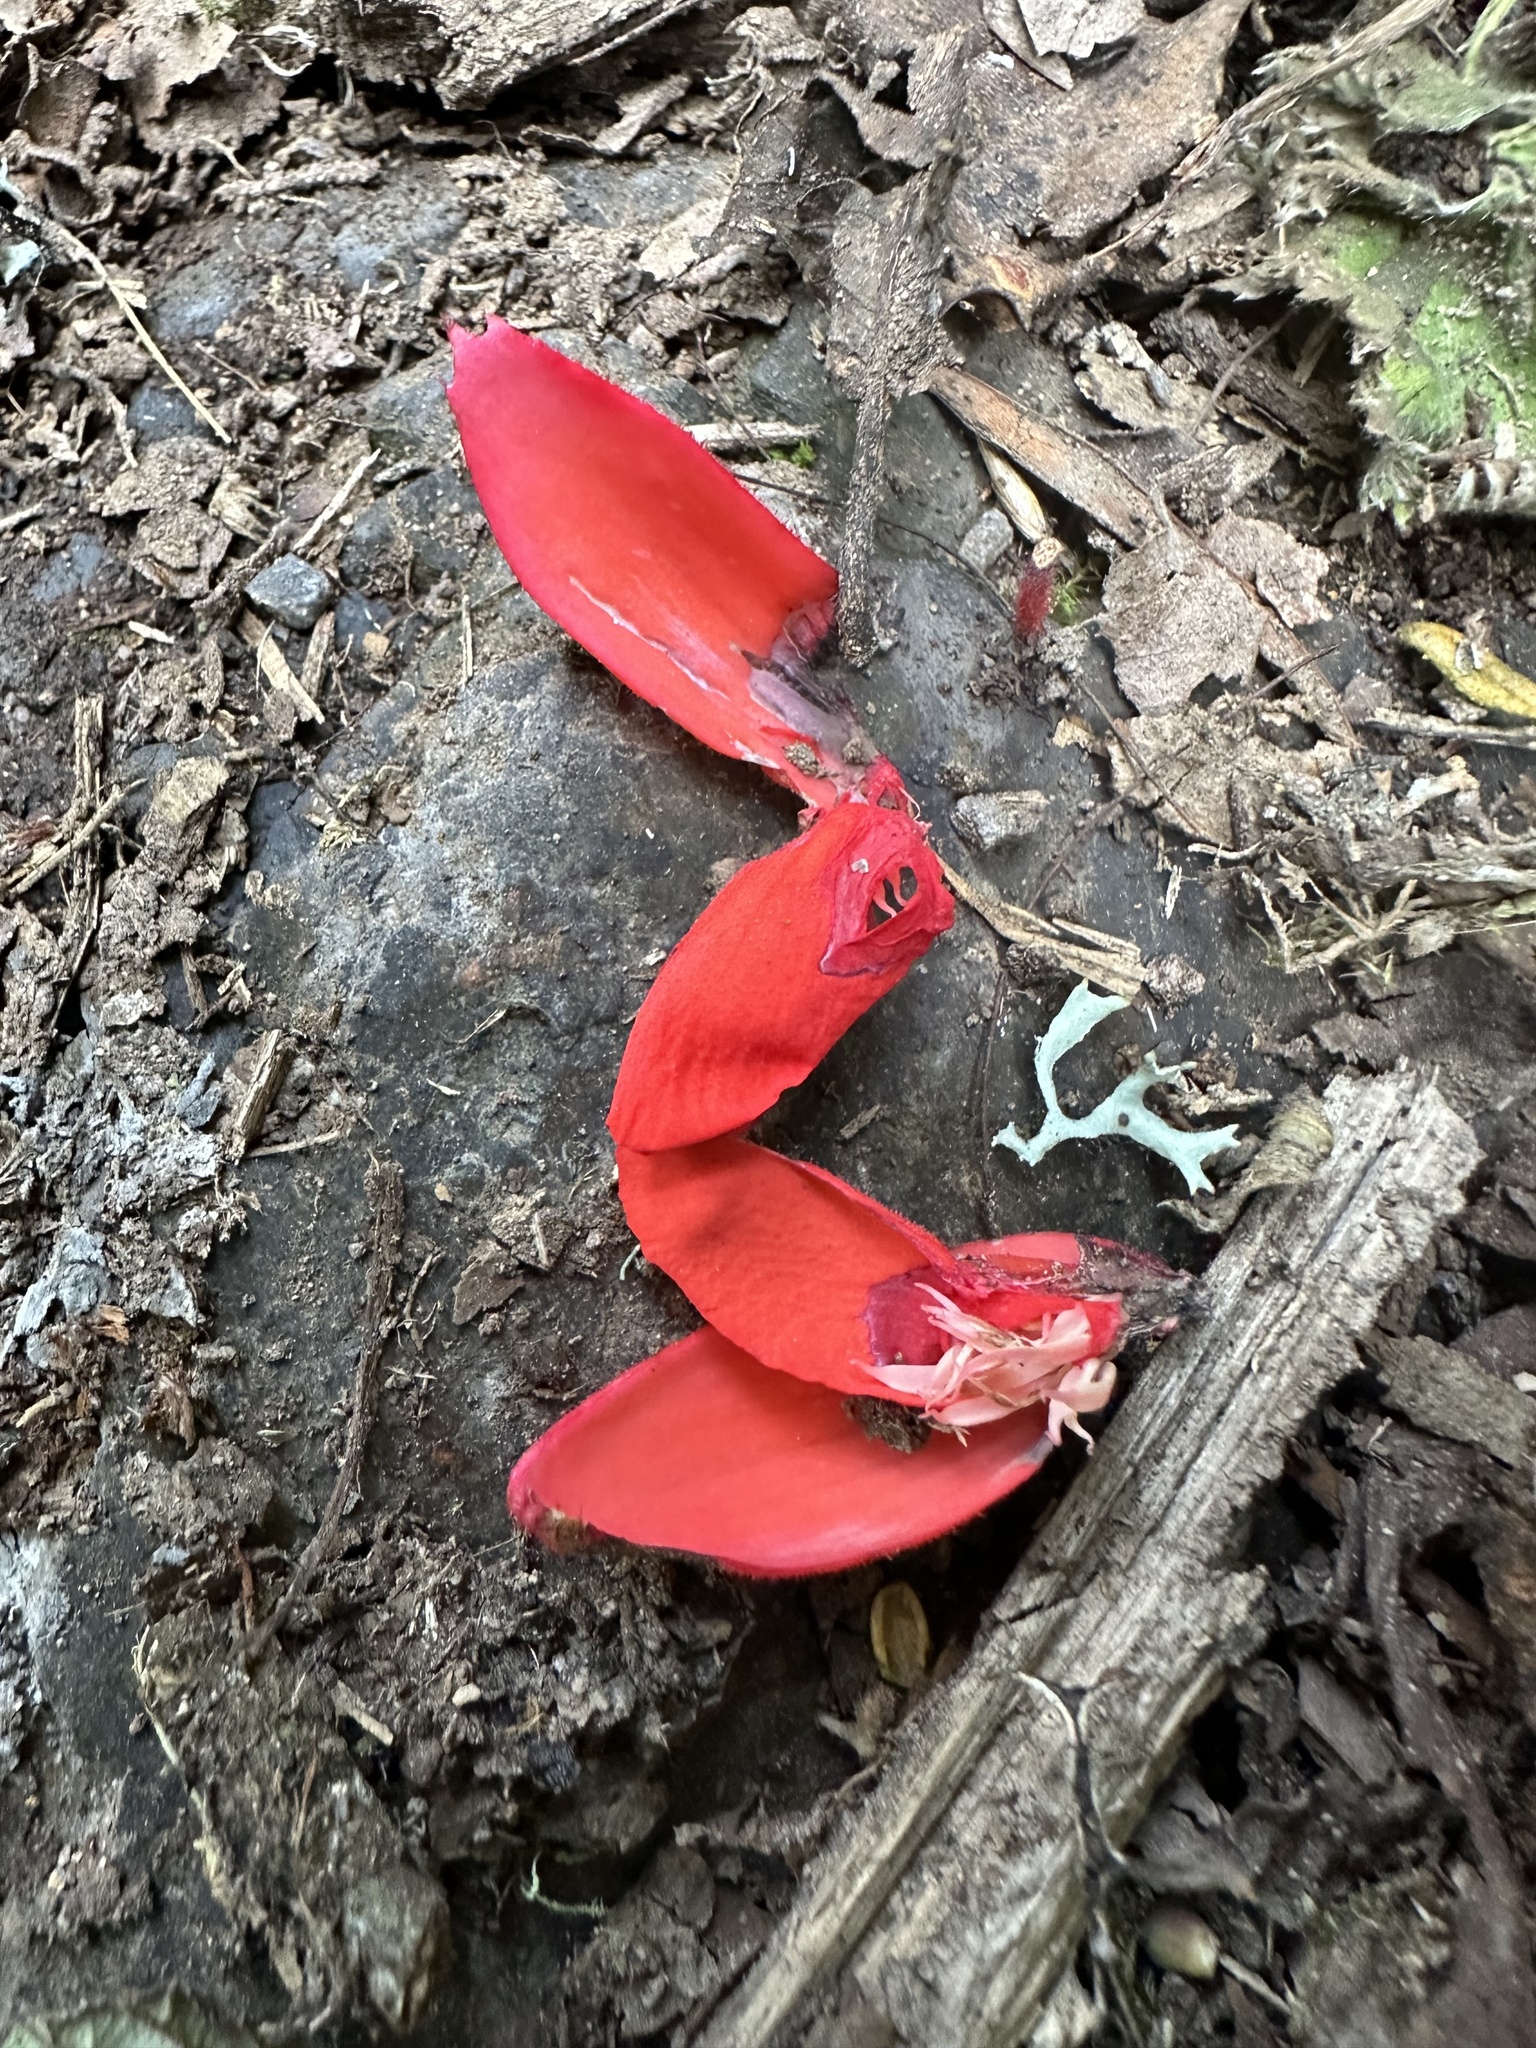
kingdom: Plantae
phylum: Tracheophyta
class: Magnoliopsida
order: Cucurbitales
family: Begoniaceae
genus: Begonia
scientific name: Begonia ferruginea
